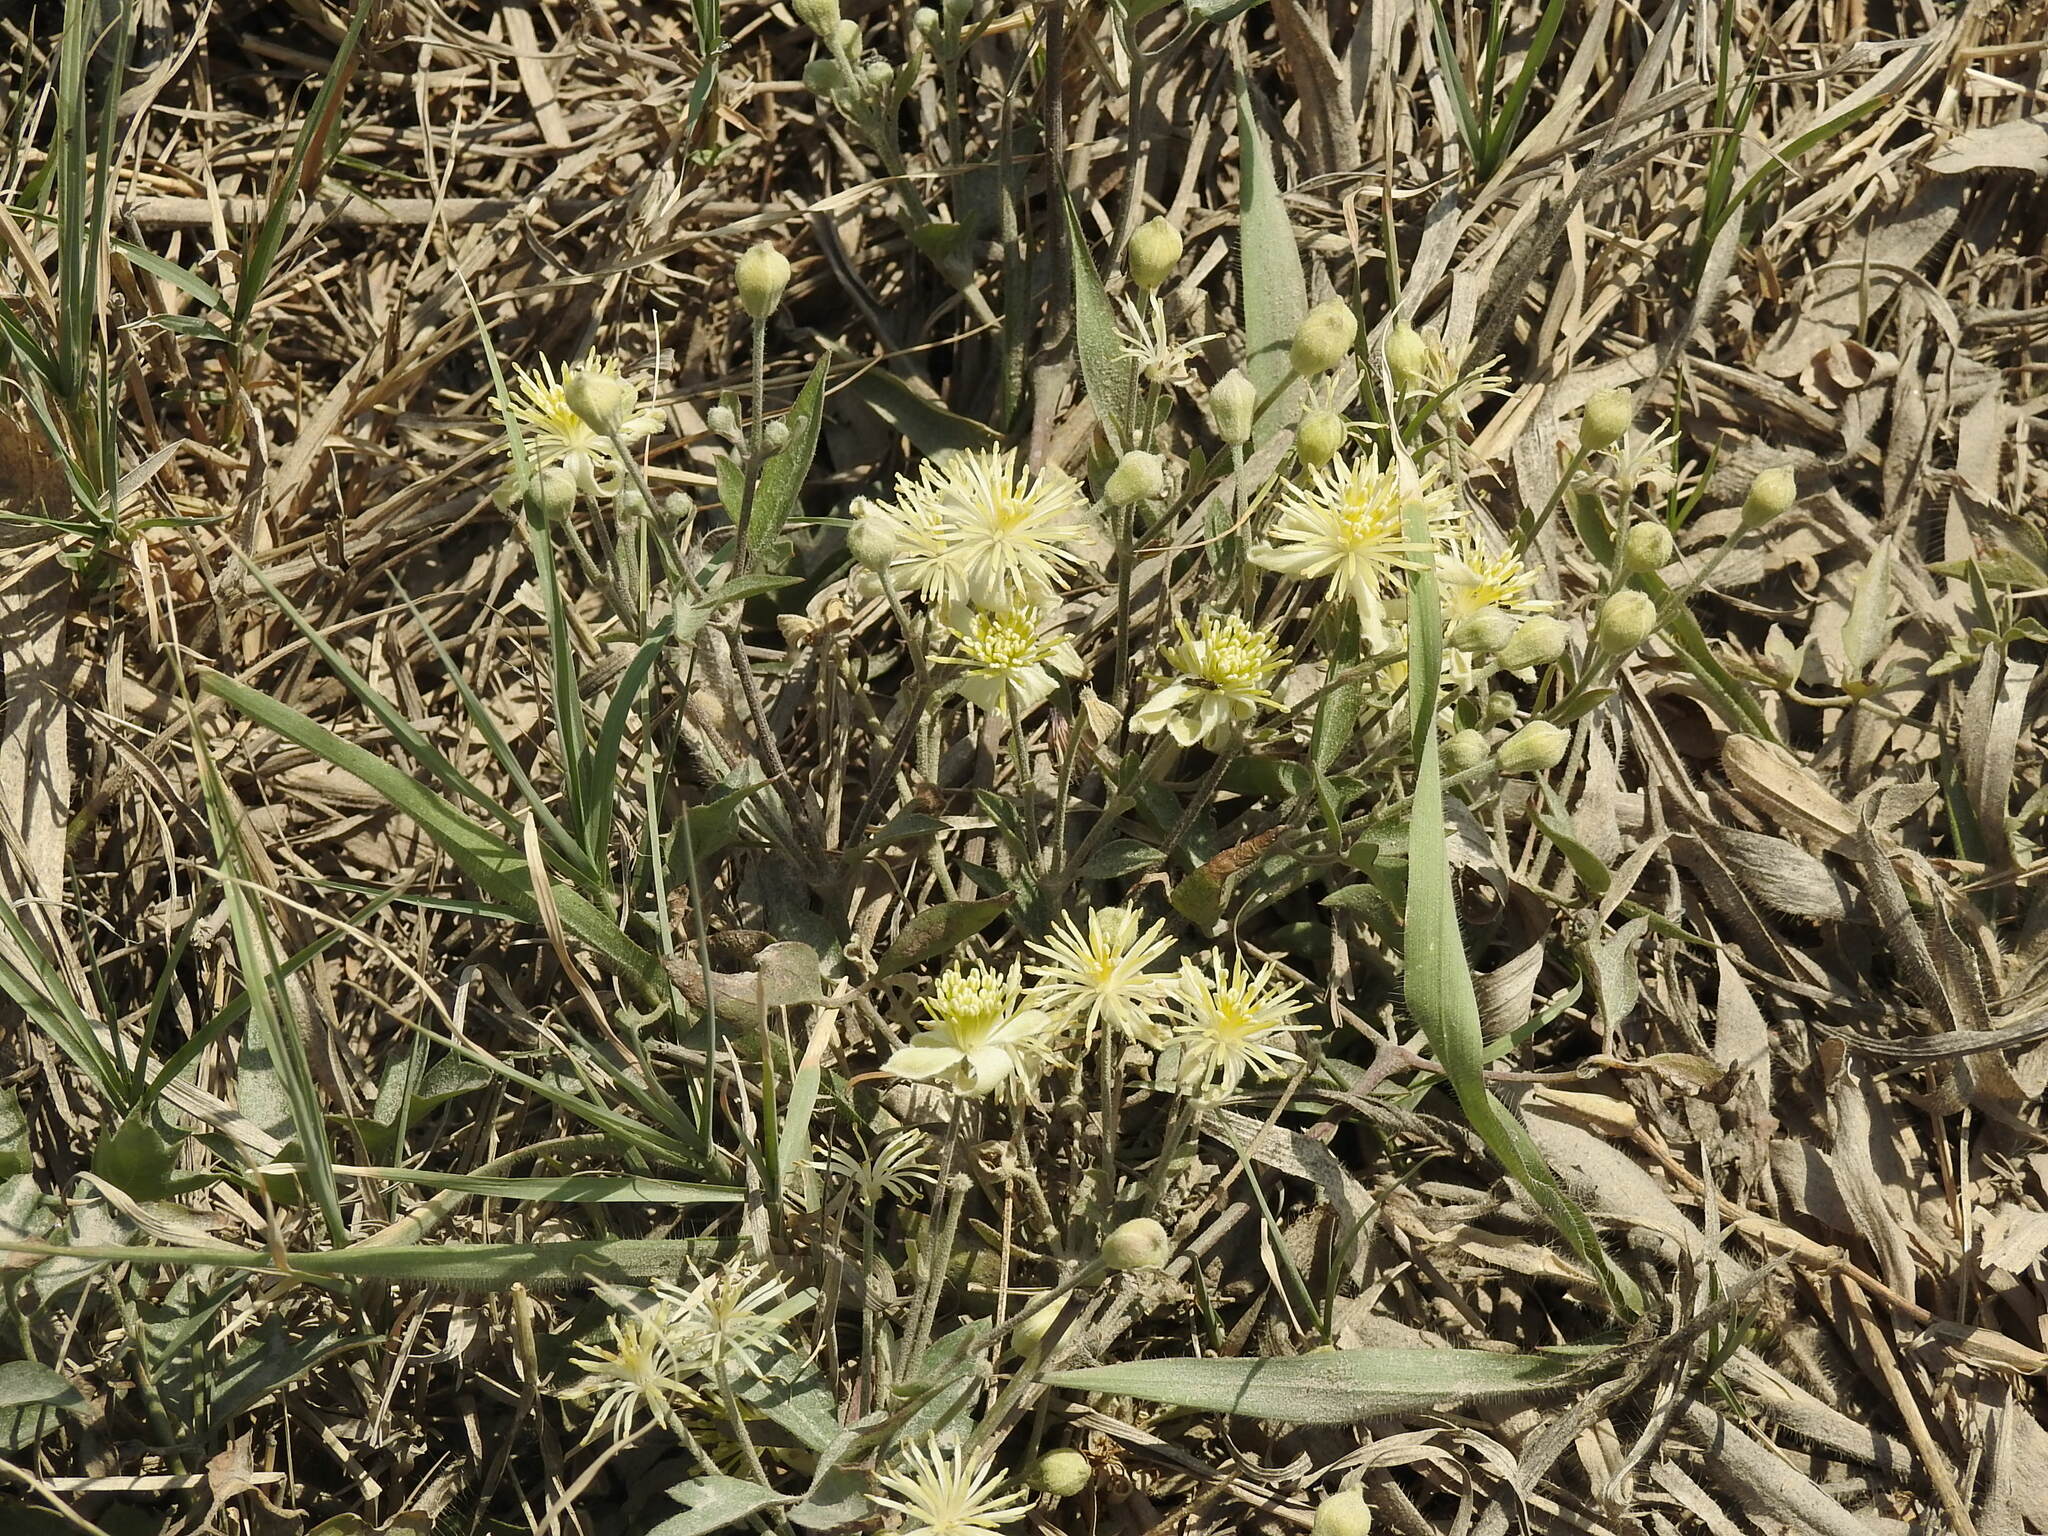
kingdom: Plantae
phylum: Tracheophyta
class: Magnoliopsida
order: Ranunculales
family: Ranunculaceae
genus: Clematis
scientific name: Clematis montevidensis
